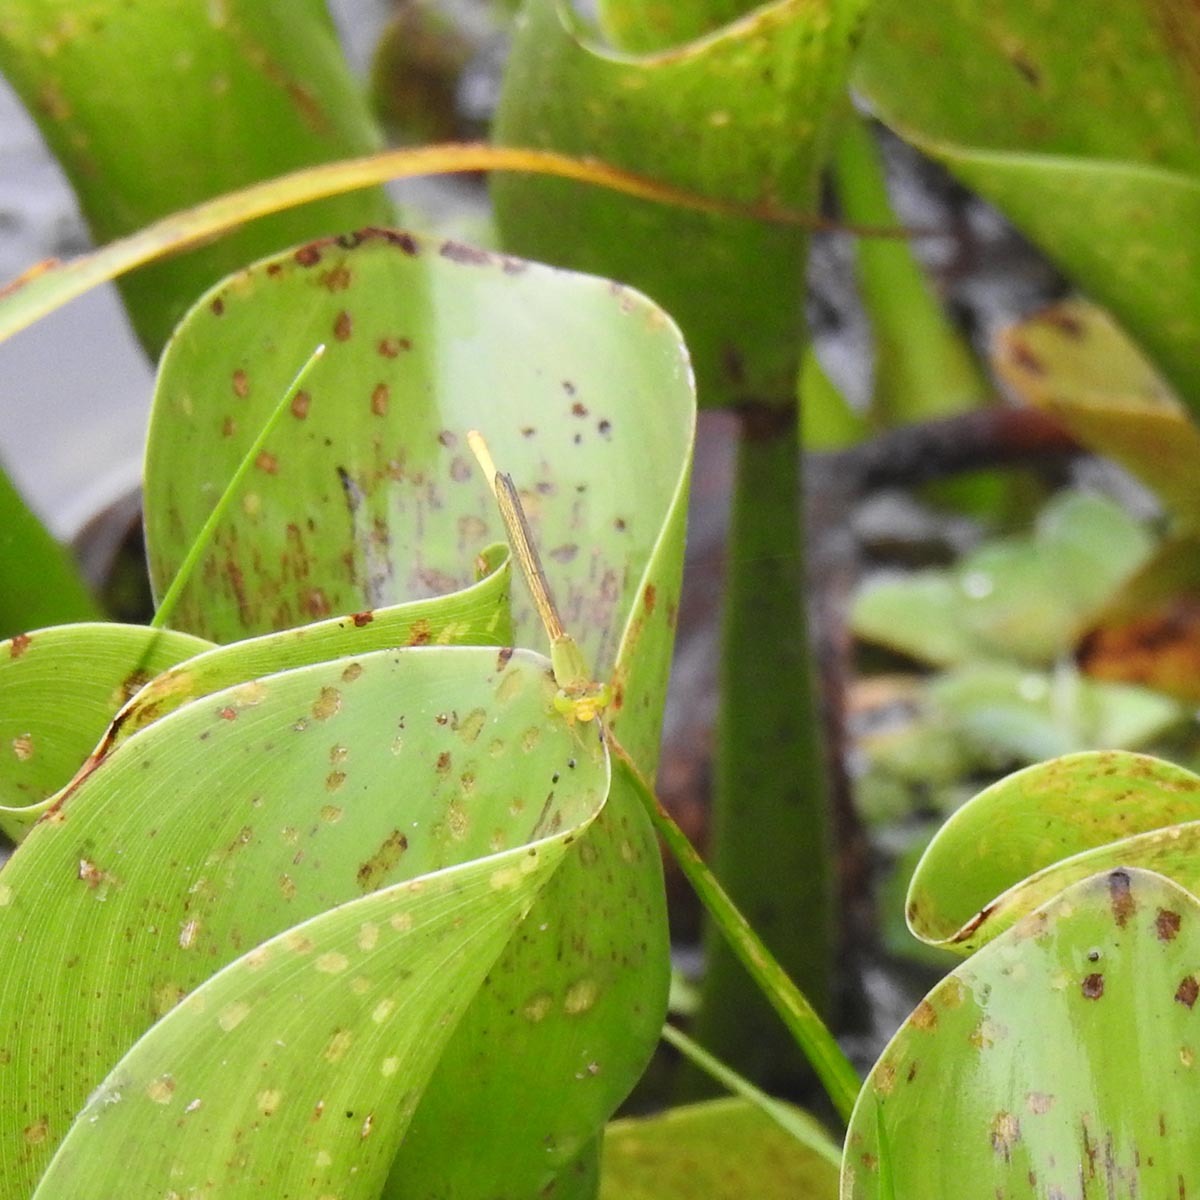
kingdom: Animalia
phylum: Arthropoda
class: Insecta
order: Odonata
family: Coenagrionidae
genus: Ceriagrion
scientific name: Ceriagrion coromandelianum
